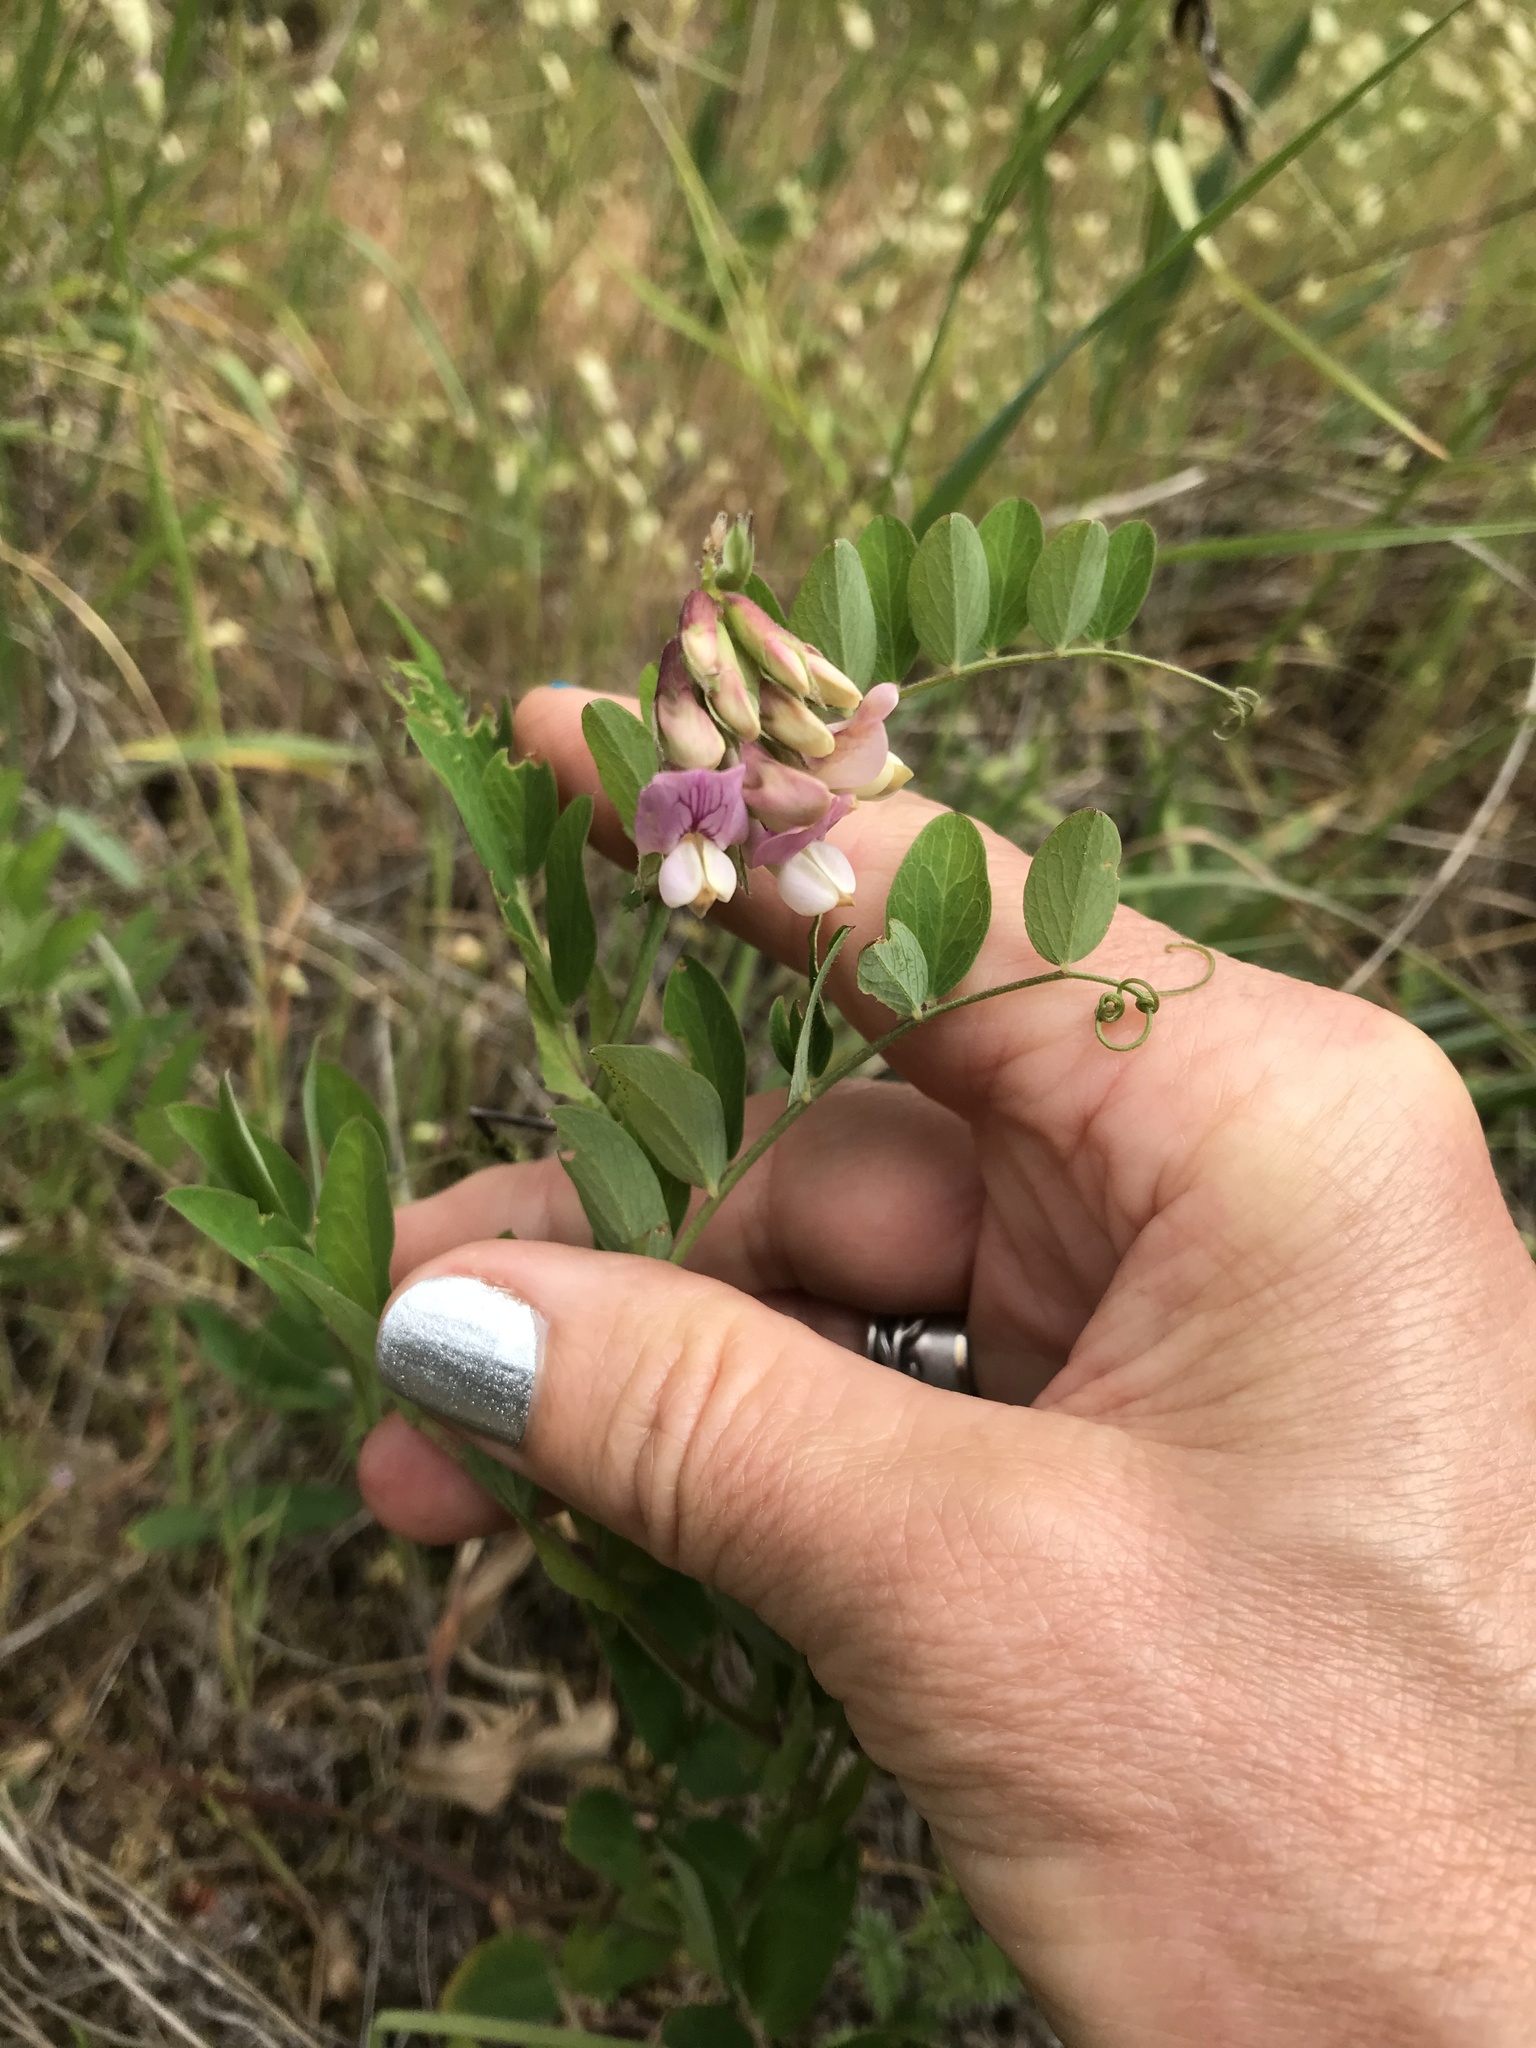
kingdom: Plantae
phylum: Tracheophyta
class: Magnoliopsida
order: Fabales
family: Fabaceae
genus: Lathyrus
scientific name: Lathyrus vestitus
